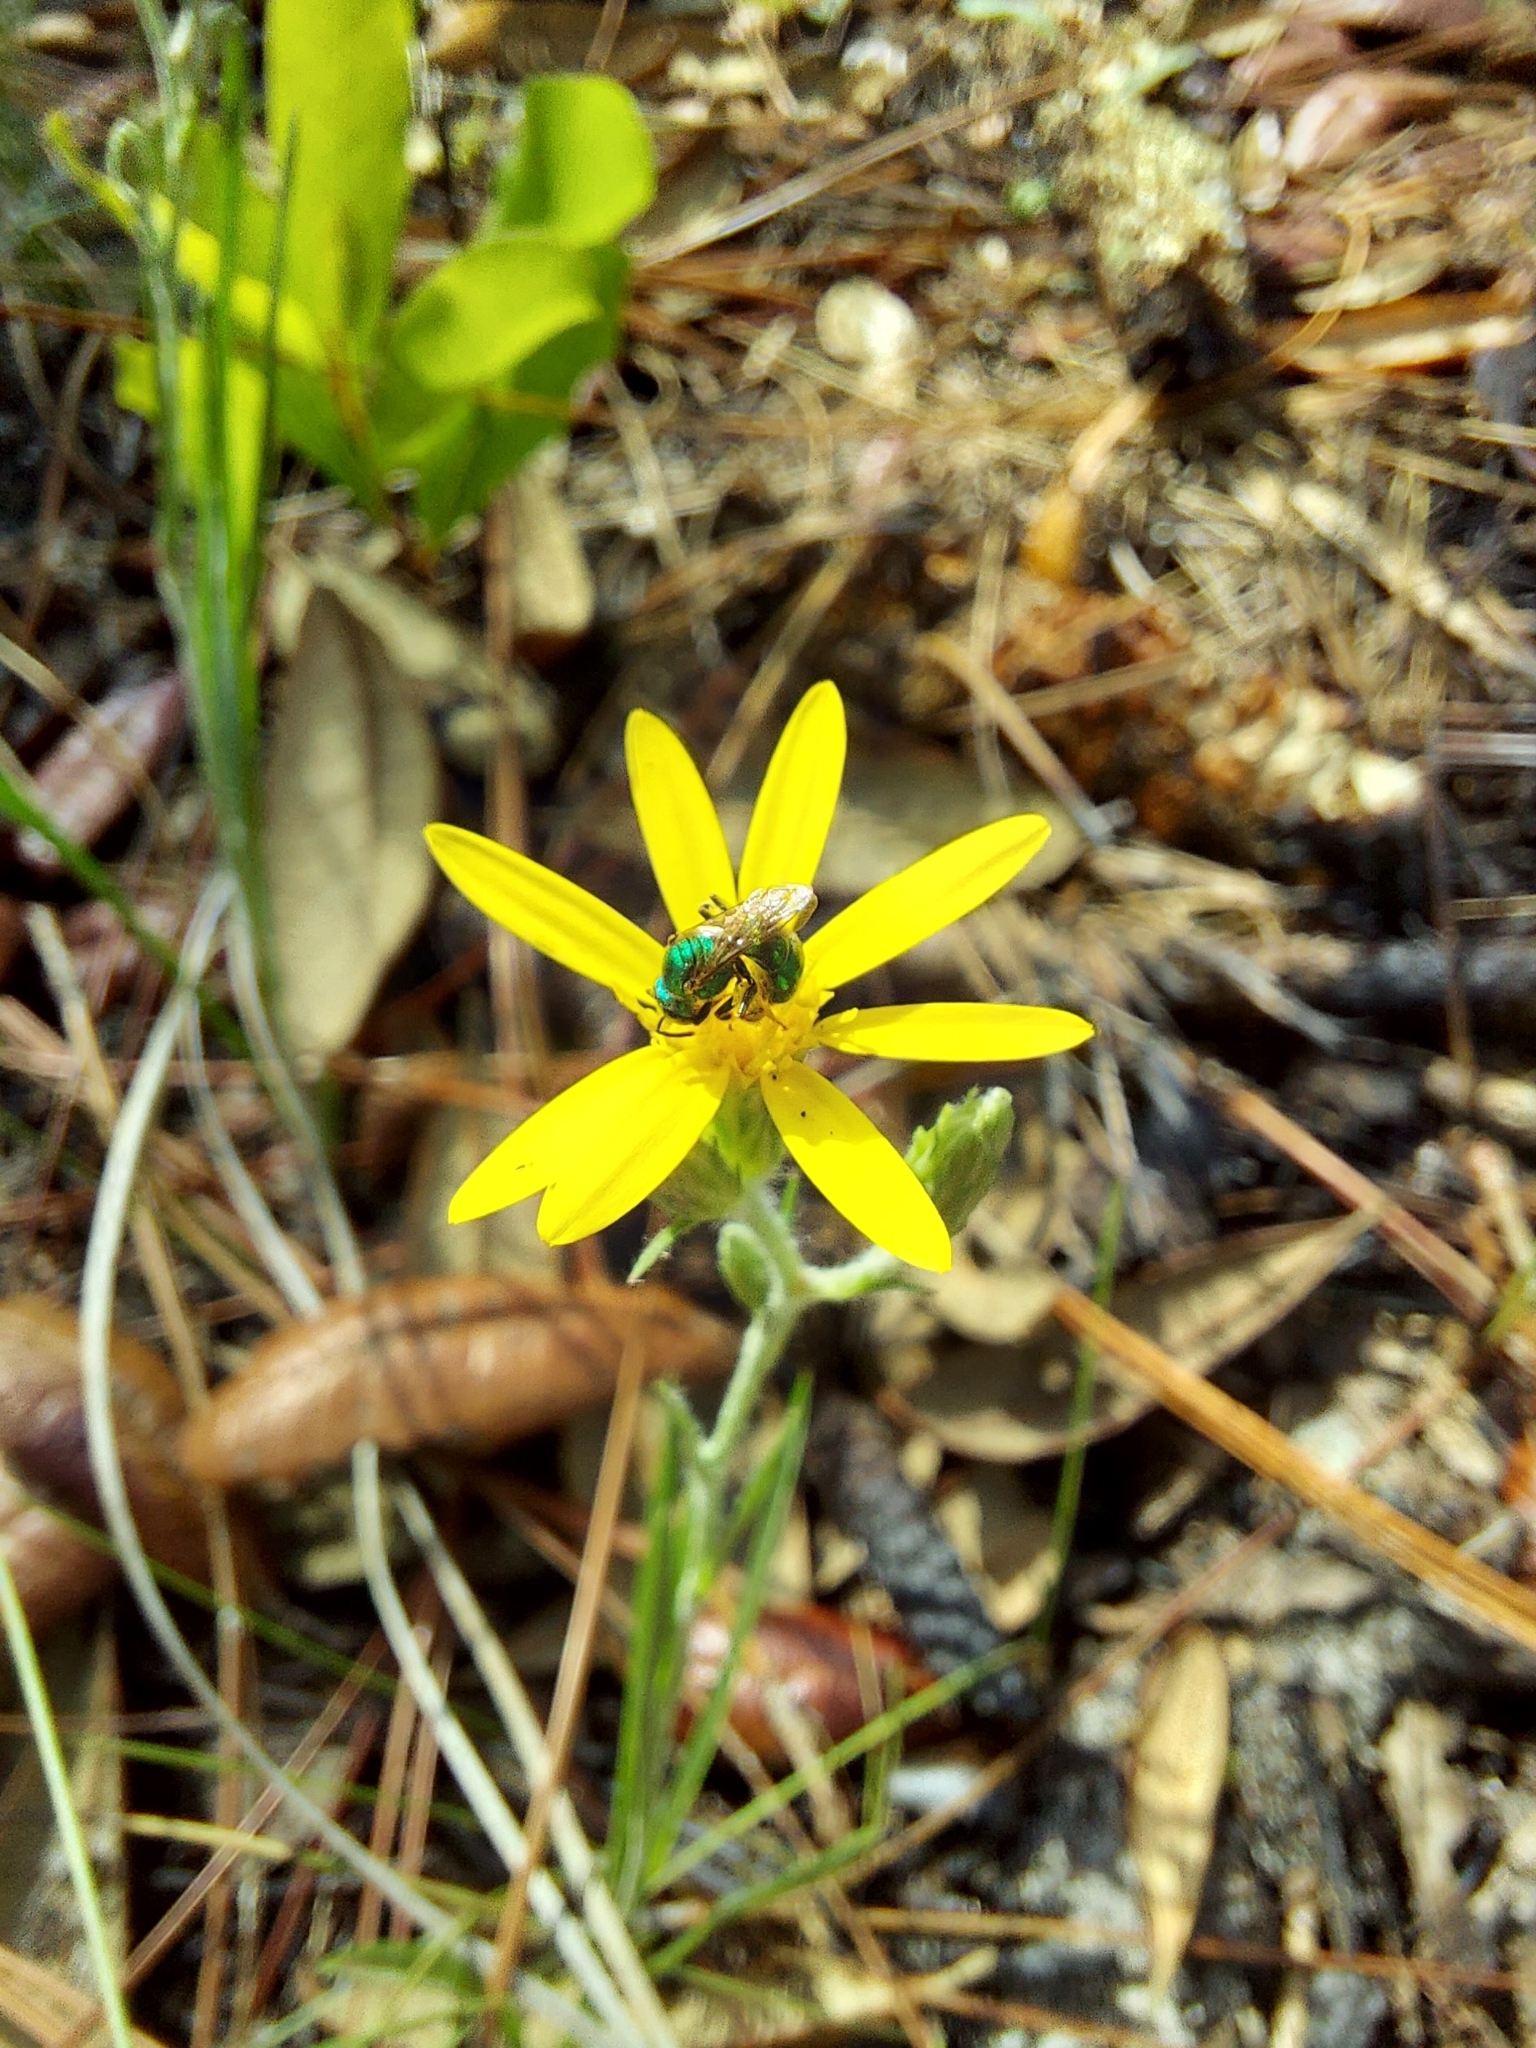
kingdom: Animalia
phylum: Arthropoda
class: Insecta
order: Hymenoptera
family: Halictidae
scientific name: Halictidae
